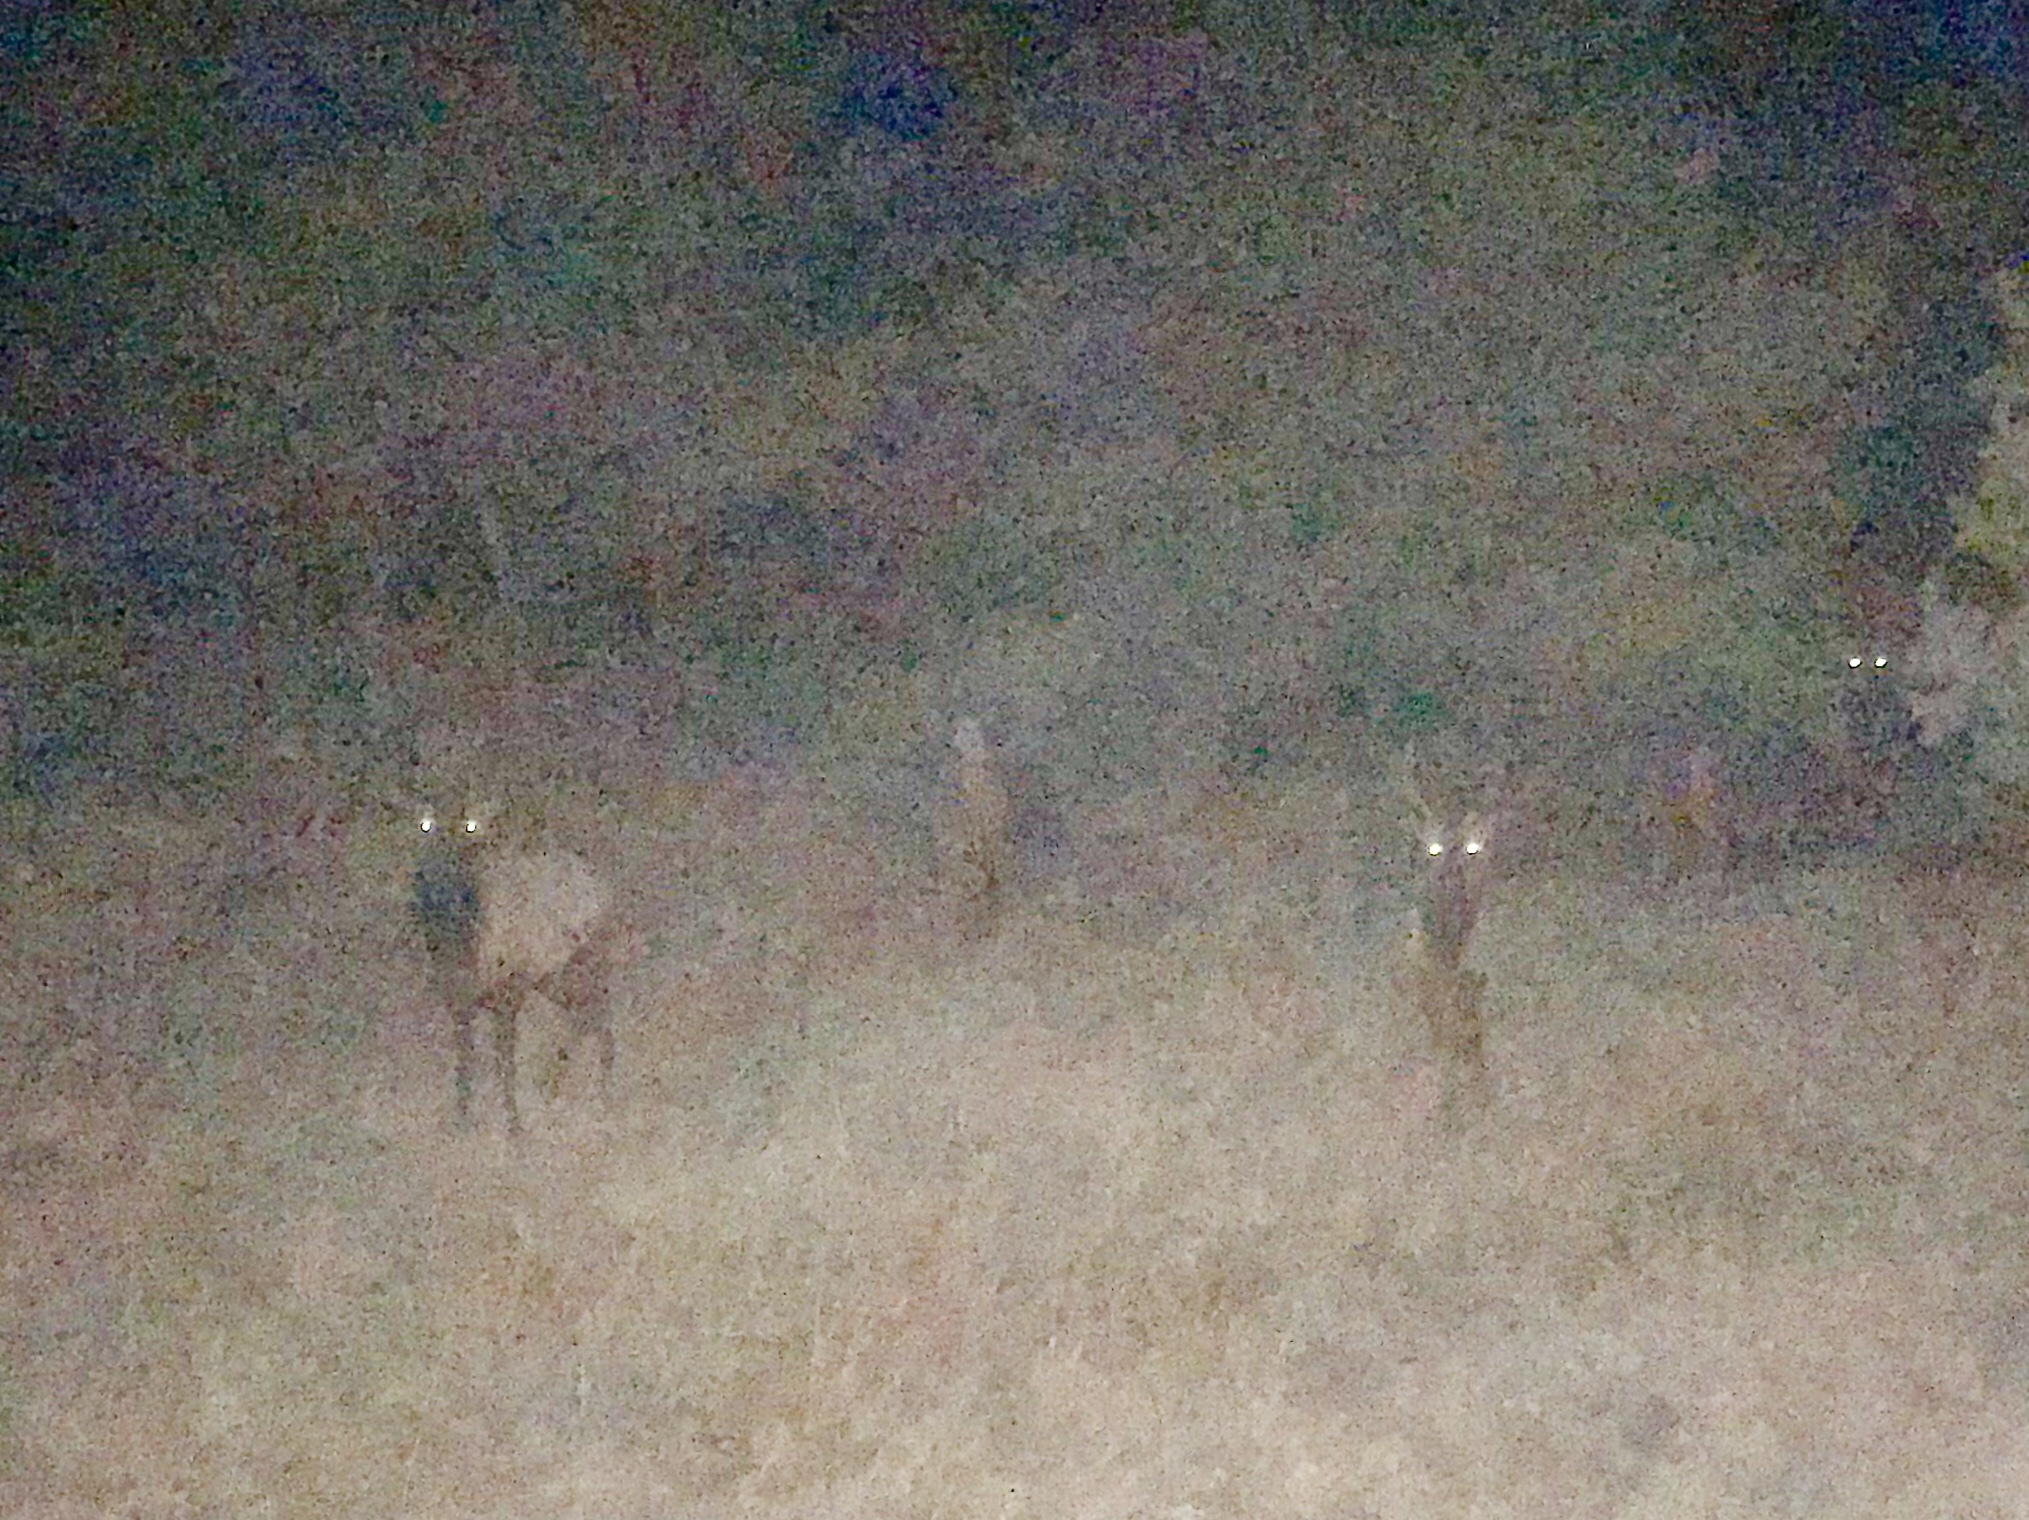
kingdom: Animalia
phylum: Chordata
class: Mammalia
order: Artiodactyla
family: Cervidae
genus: Cervus
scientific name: Cervus elaphus
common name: Red deer
